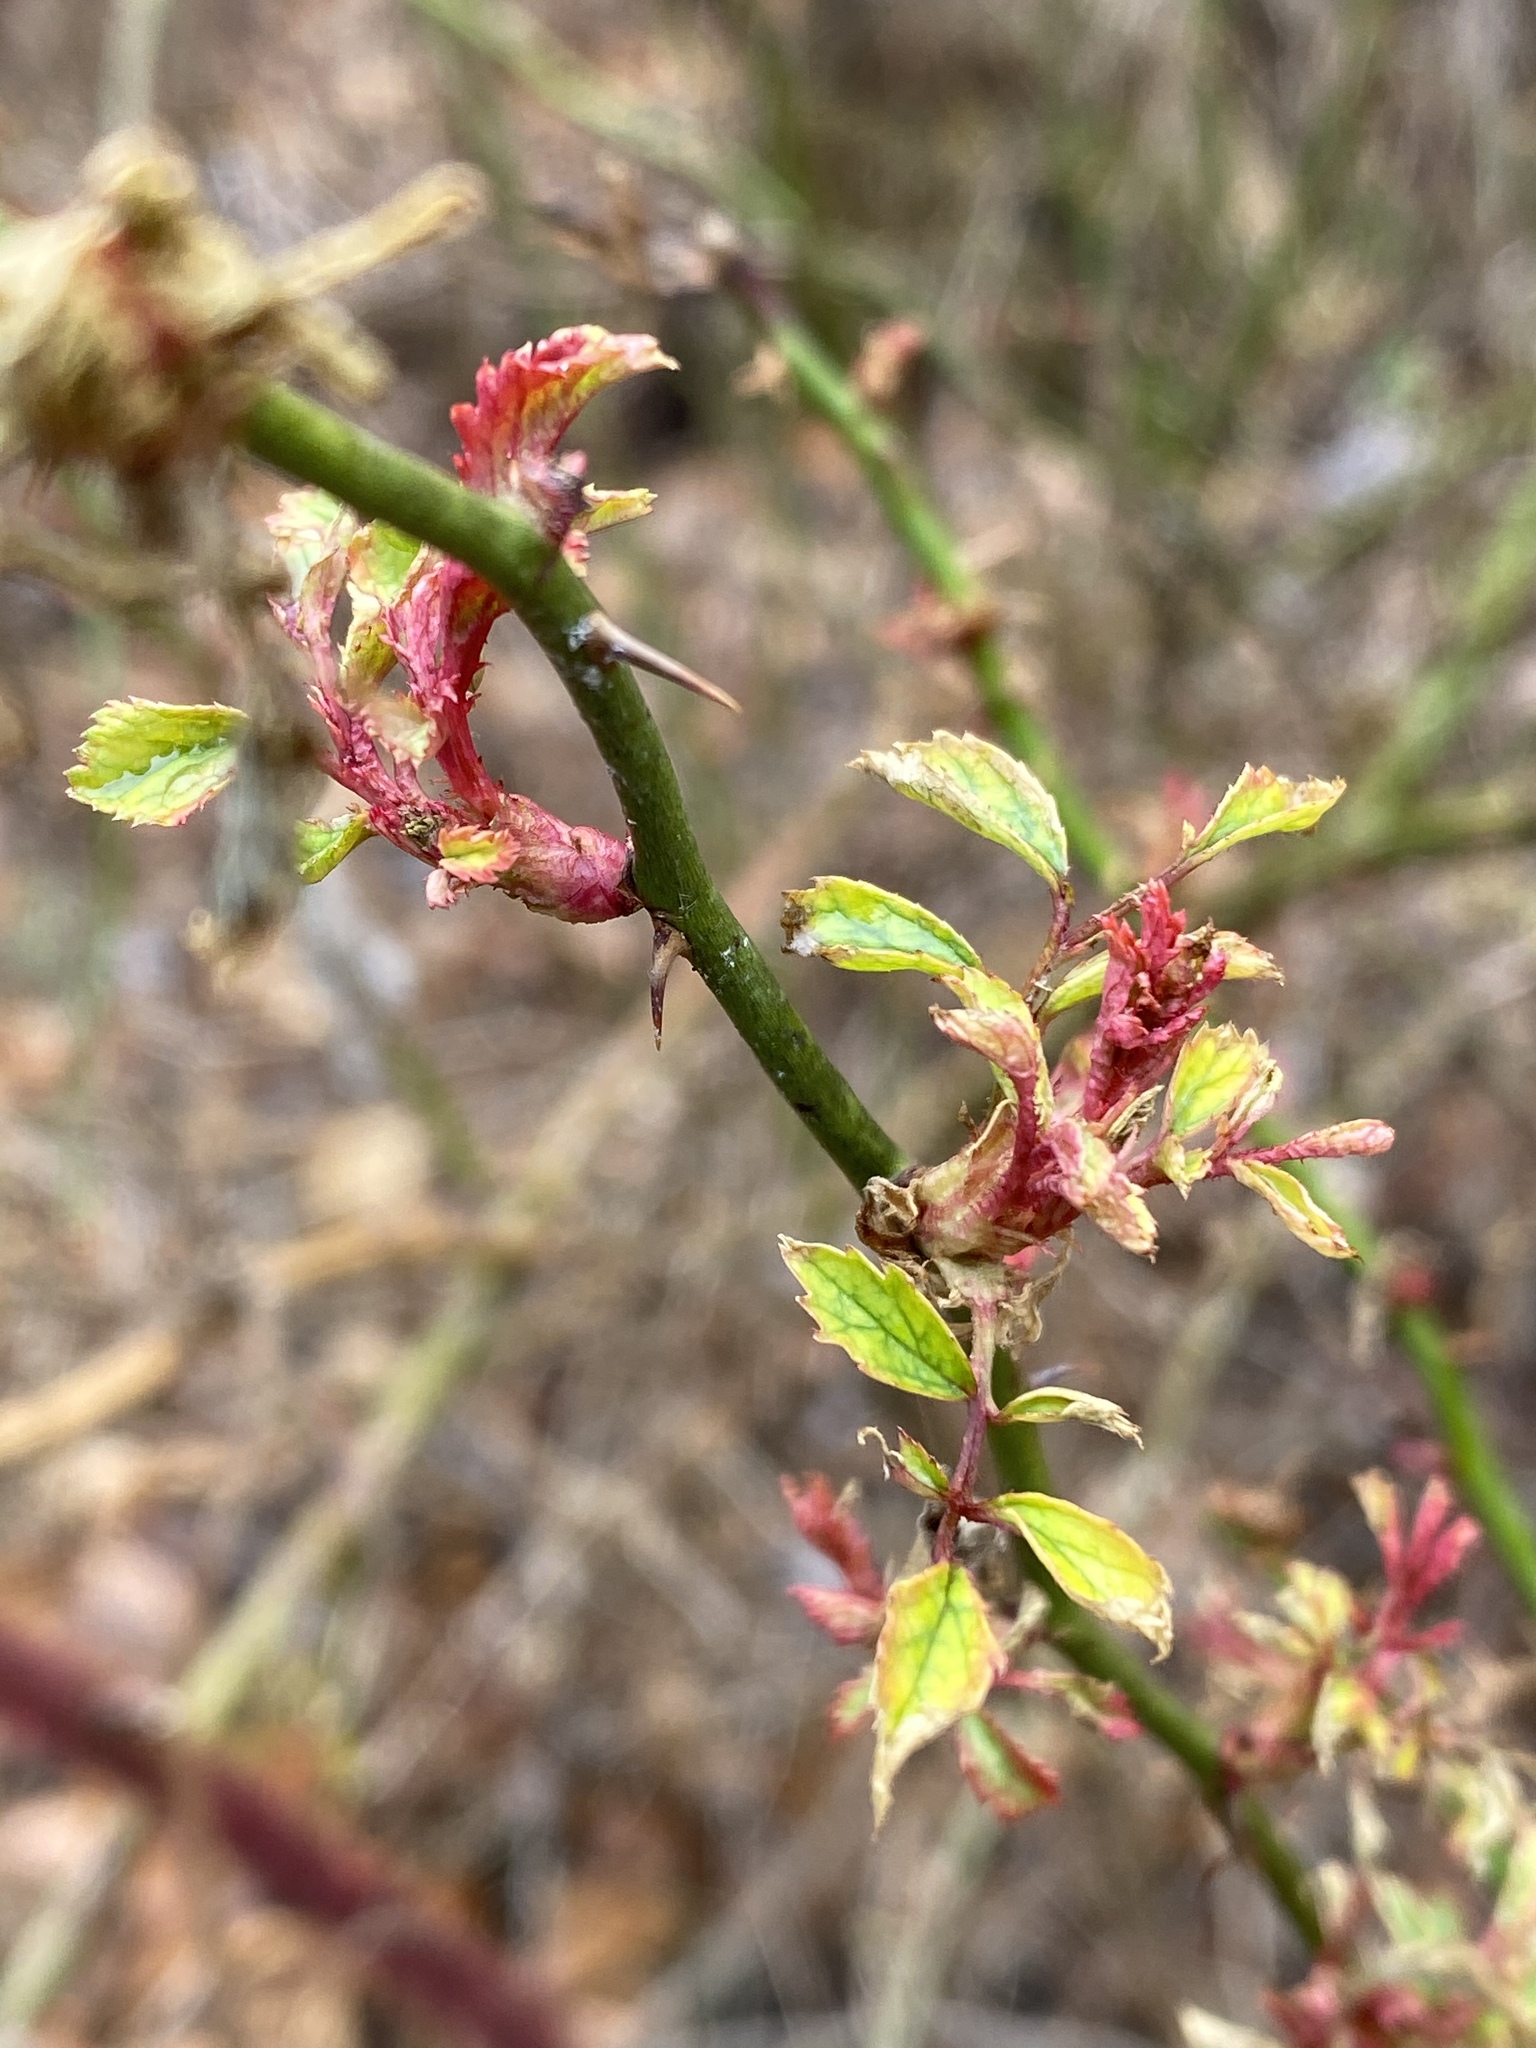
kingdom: Viruses
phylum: Negarnaviricota
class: Ellioviricetes
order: Bunyavirales
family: Fimoviridae
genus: Emaravirus
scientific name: Emaravirus rosae
